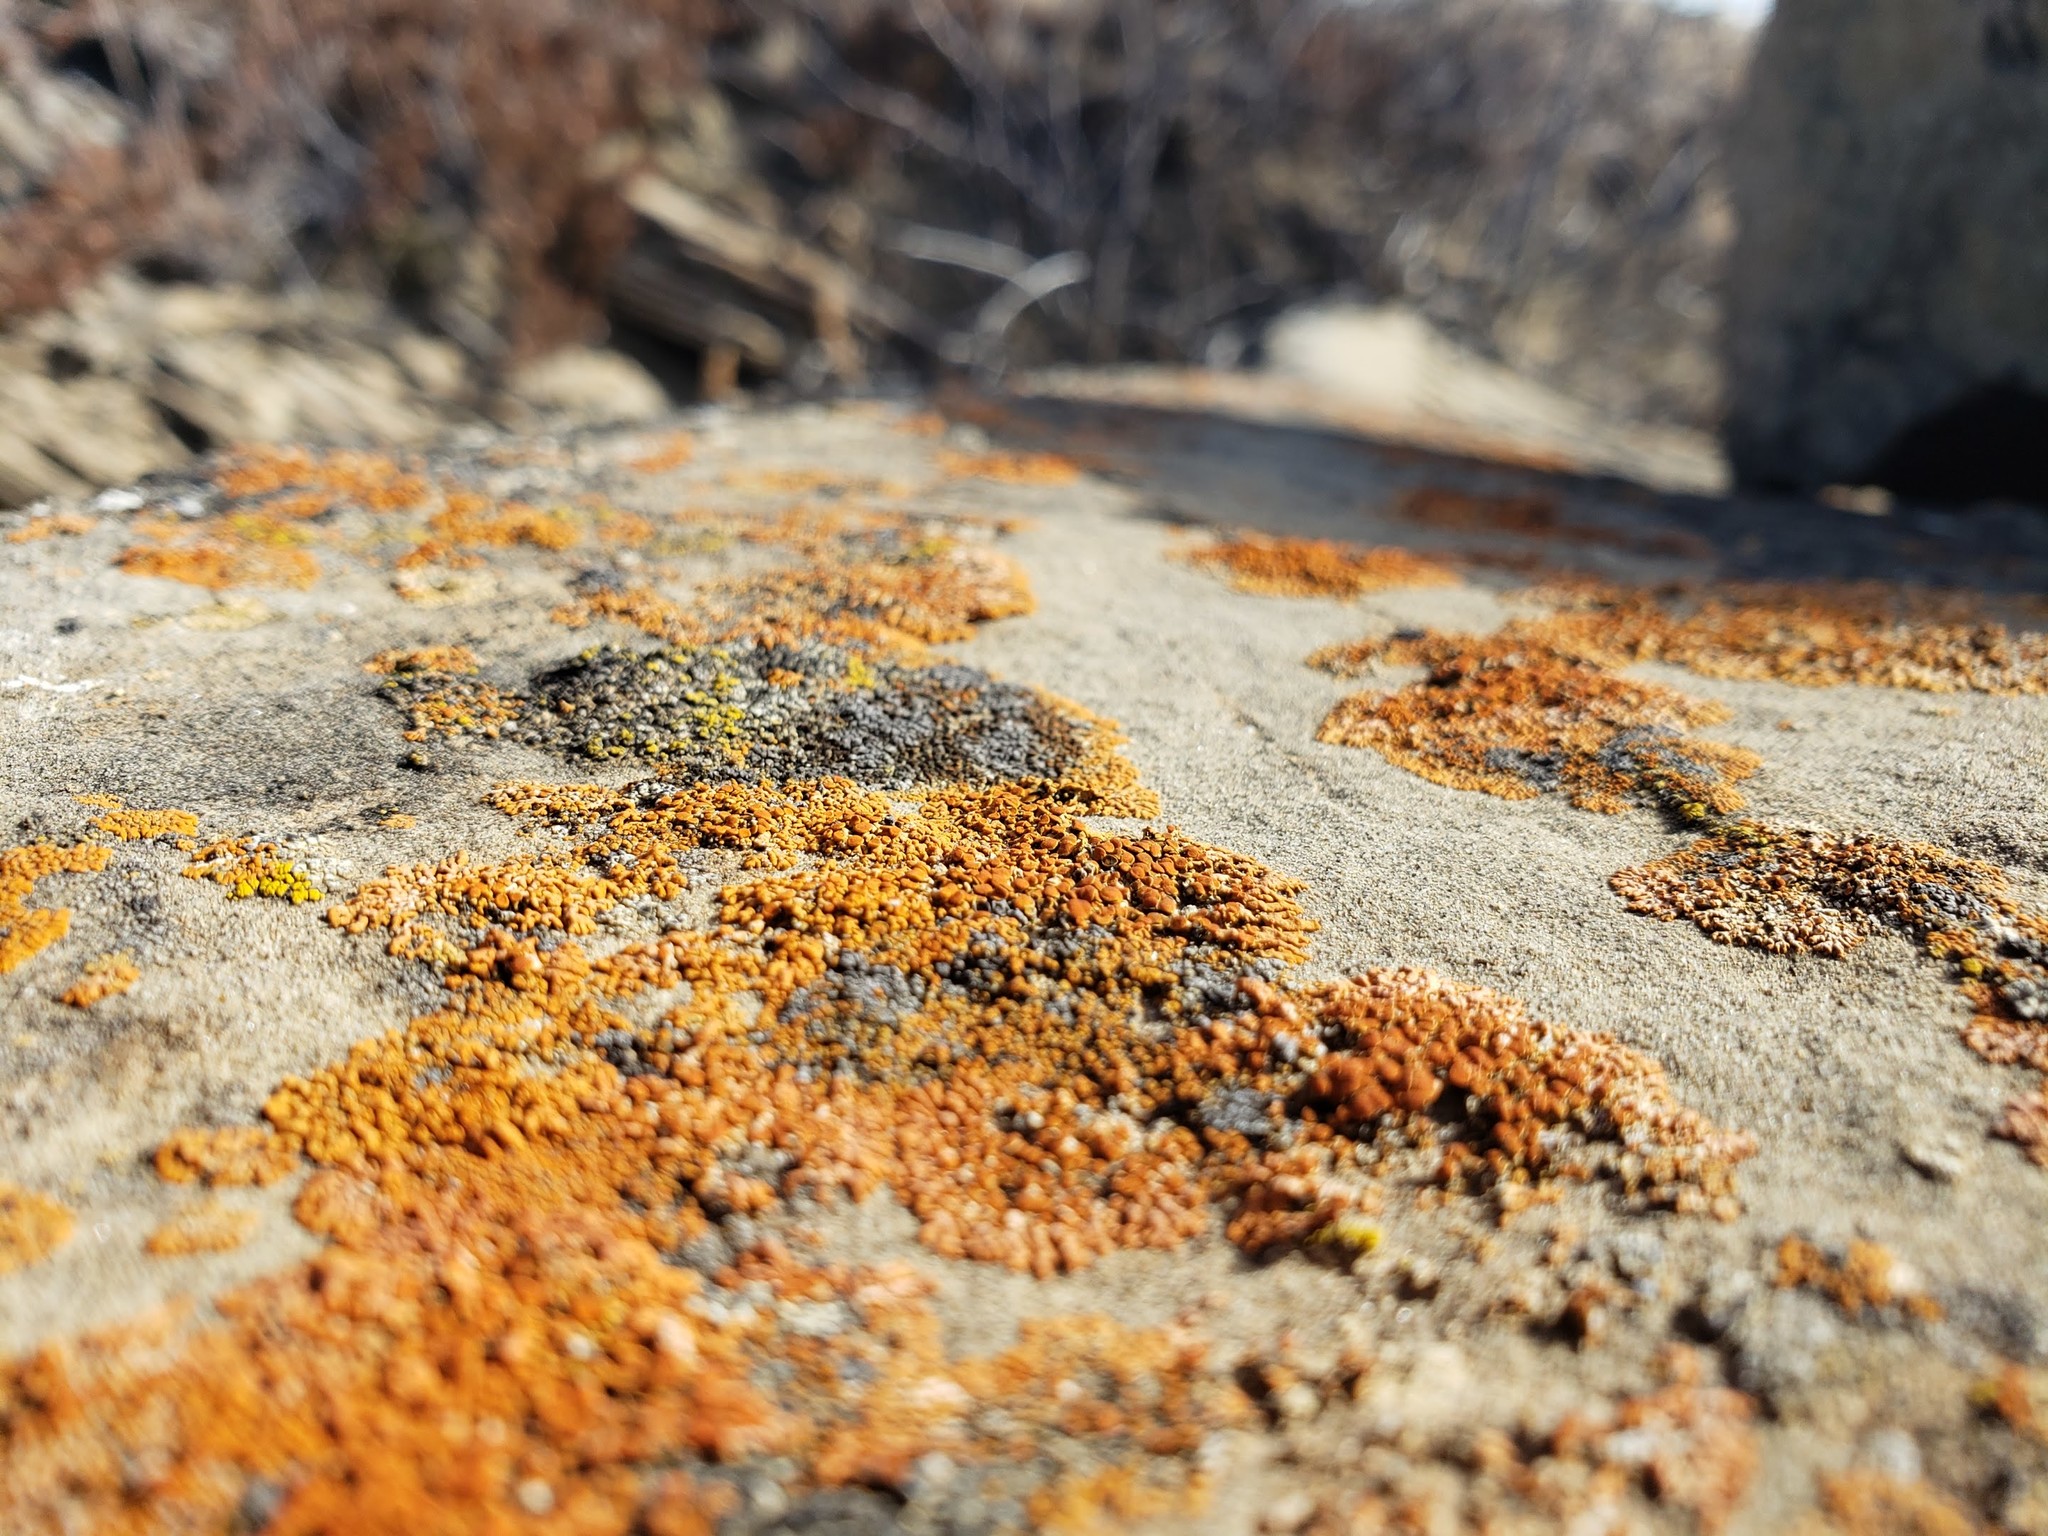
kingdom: Fungi
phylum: Ascomycota
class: Lecanoromycetes
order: Teloschistales
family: Teloschistaceae
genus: Xanthoria
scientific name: Xanthoria elegans
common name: Elegant sunburst lichen
